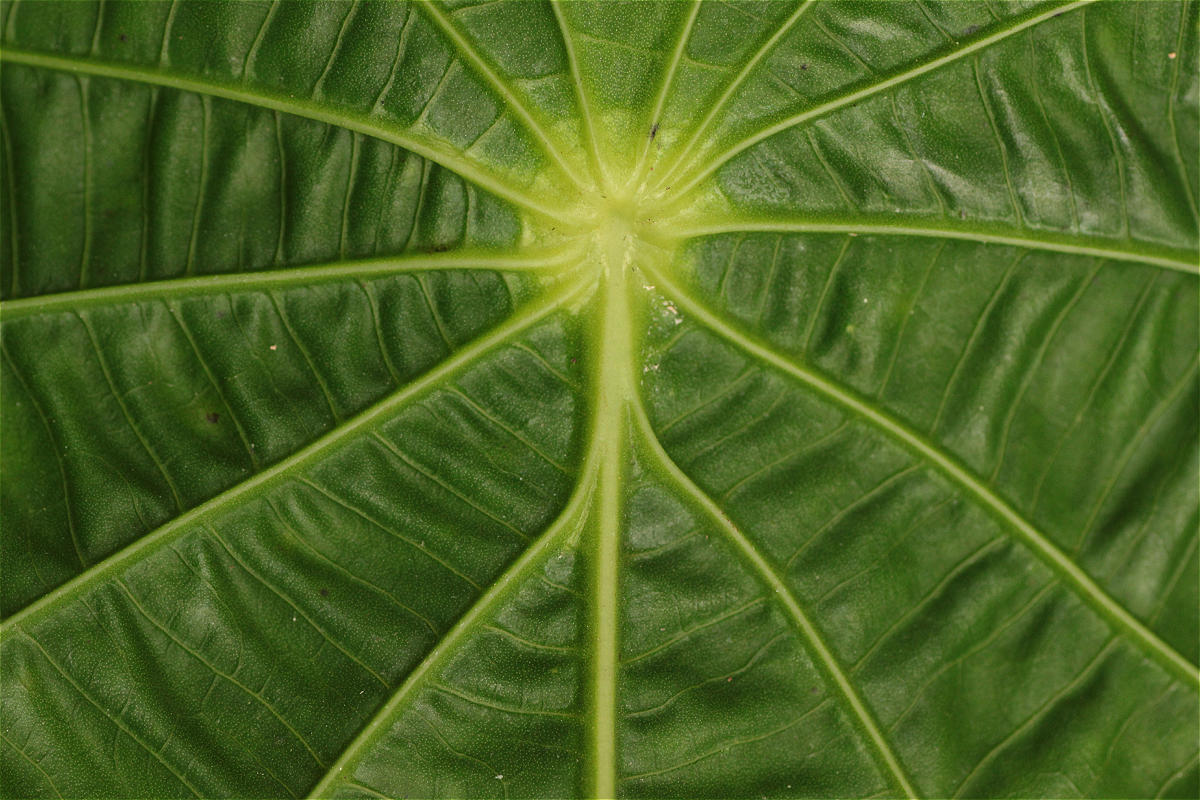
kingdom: Plantae
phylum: Tracheophyta
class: Magnoliopsida
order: Piperales
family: Piperaceae
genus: Piper
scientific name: Piper peltatum
